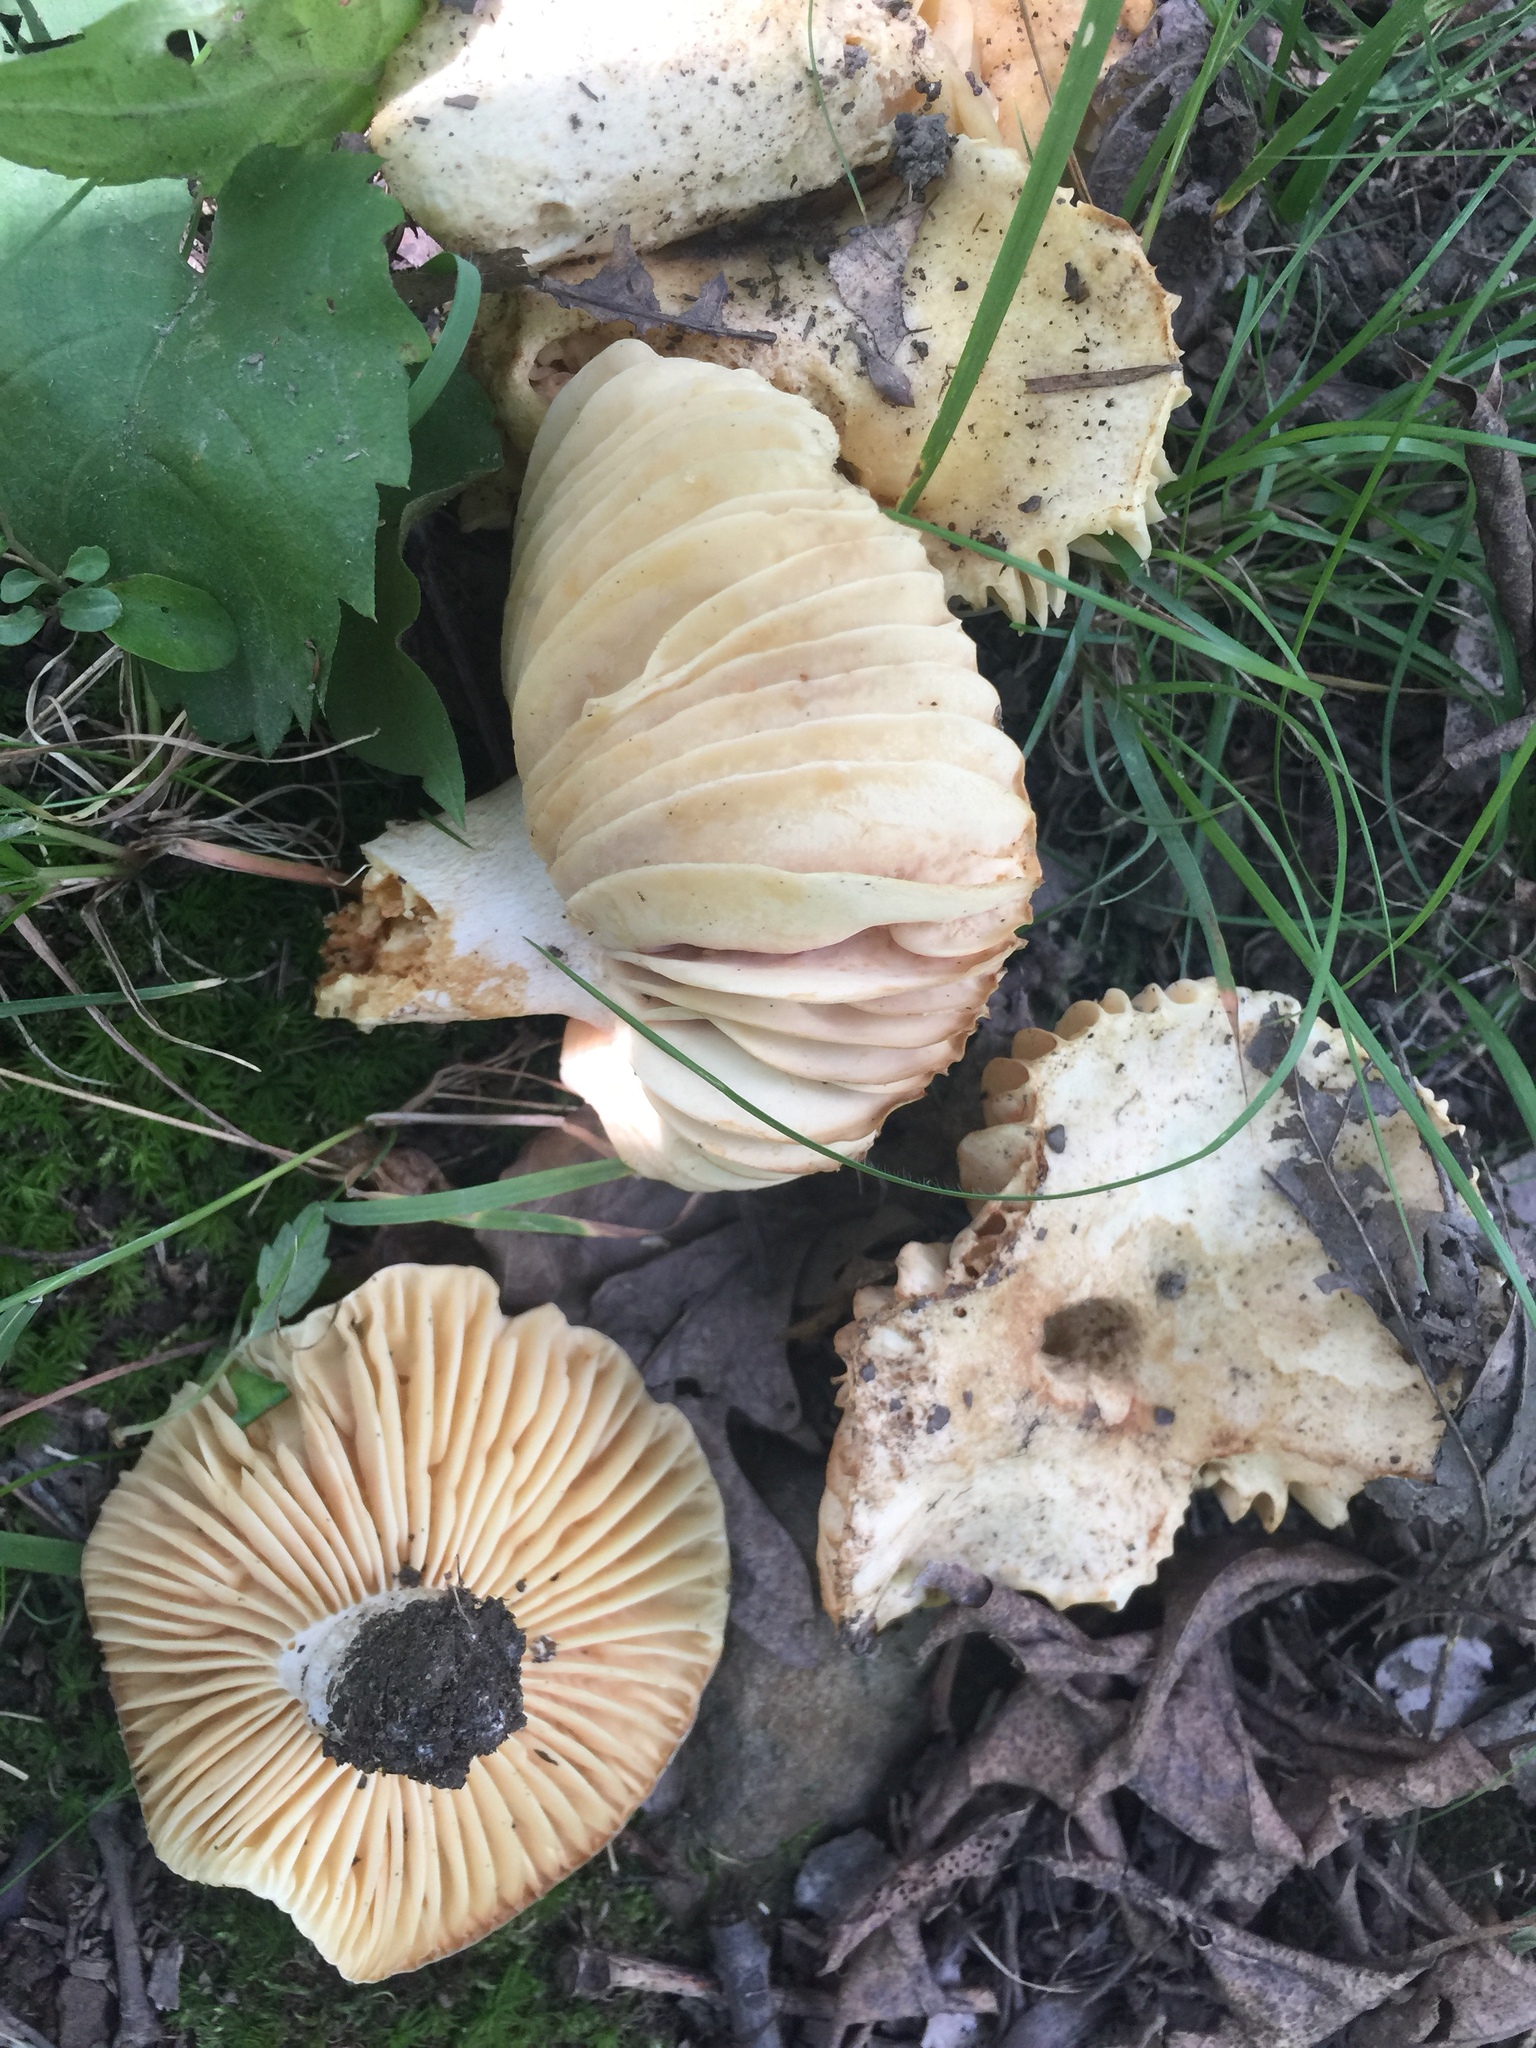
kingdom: Fungi
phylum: Basidiomycota
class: Agaricomycetes
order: Russulales
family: Russulaceae
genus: Russula
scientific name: Russula earlei
